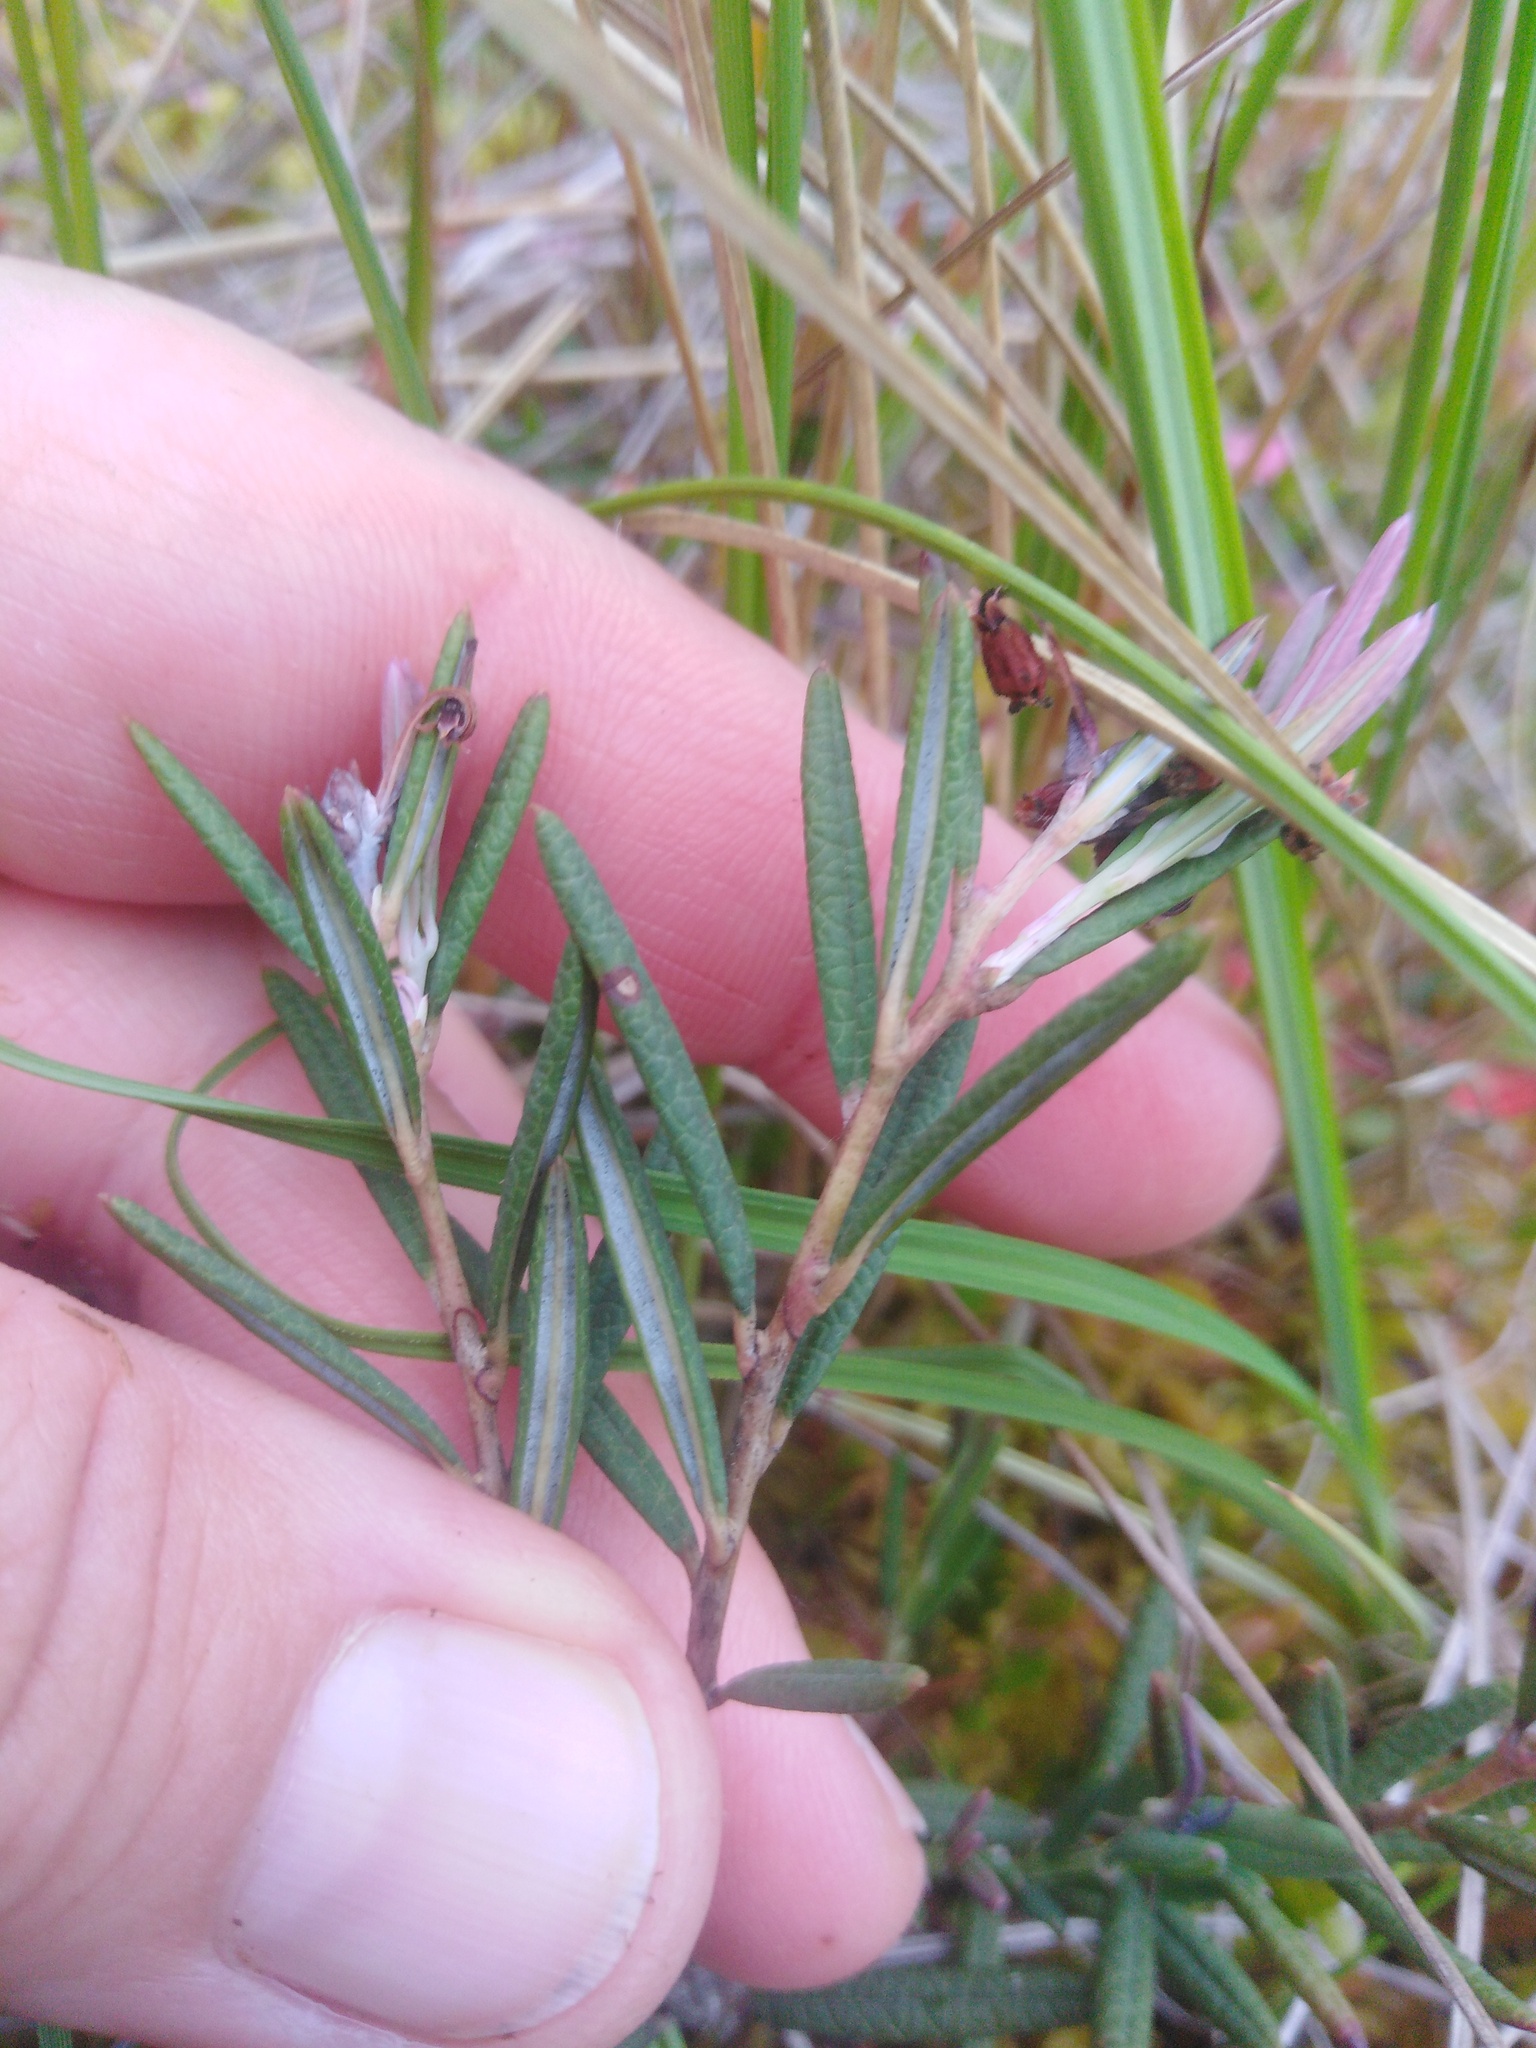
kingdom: Plantae
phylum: Tracheophyta
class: Magnoliopsida
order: Ericales
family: Ericaceae
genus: Andromeda
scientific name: Andromeda polifolia
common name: Bog-rosemary
